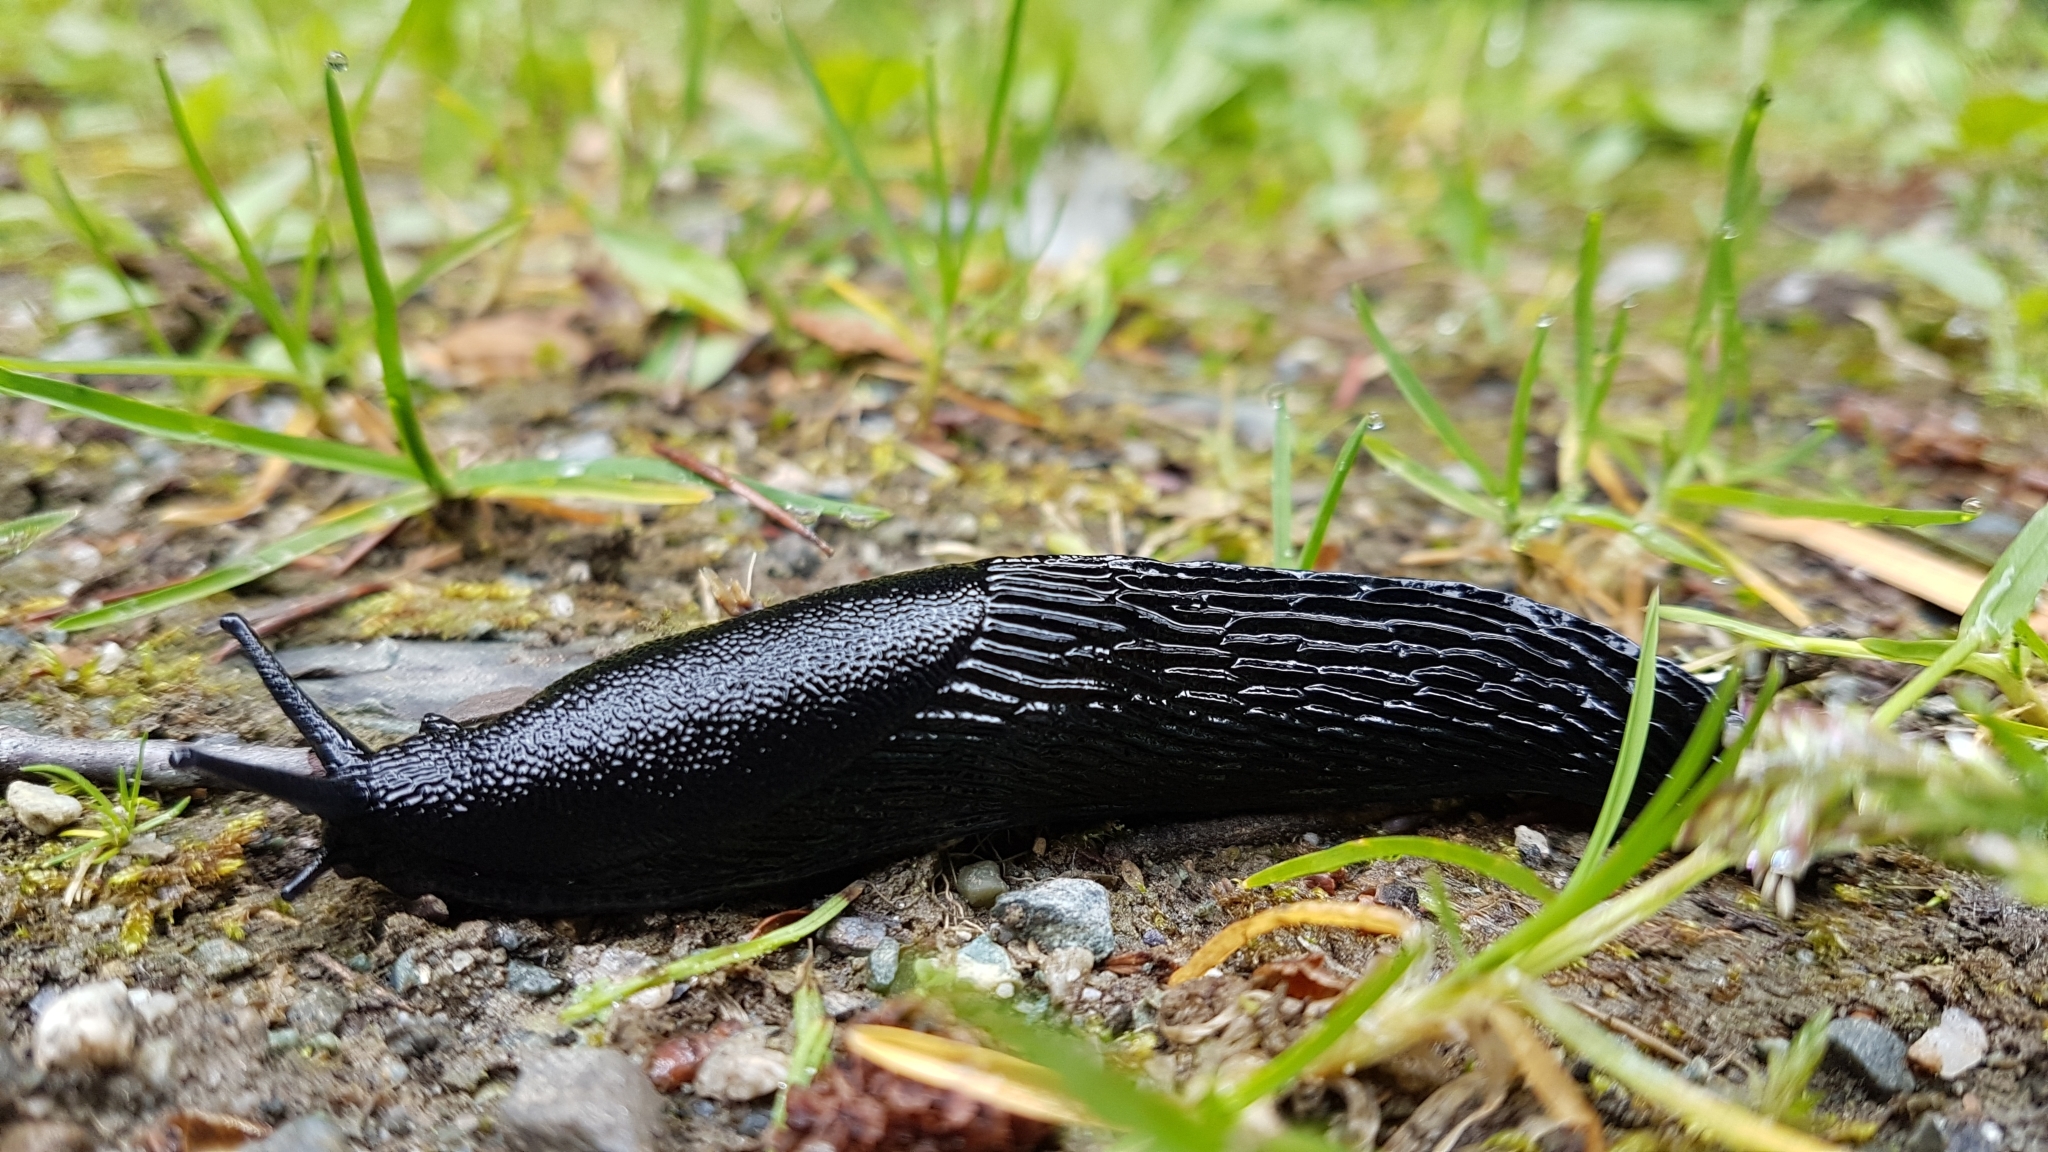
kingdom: Animalia
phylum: Mollusca
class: Gastropoda
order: Stylommatophora
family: Arionidae
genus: Arion
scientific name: Arion
